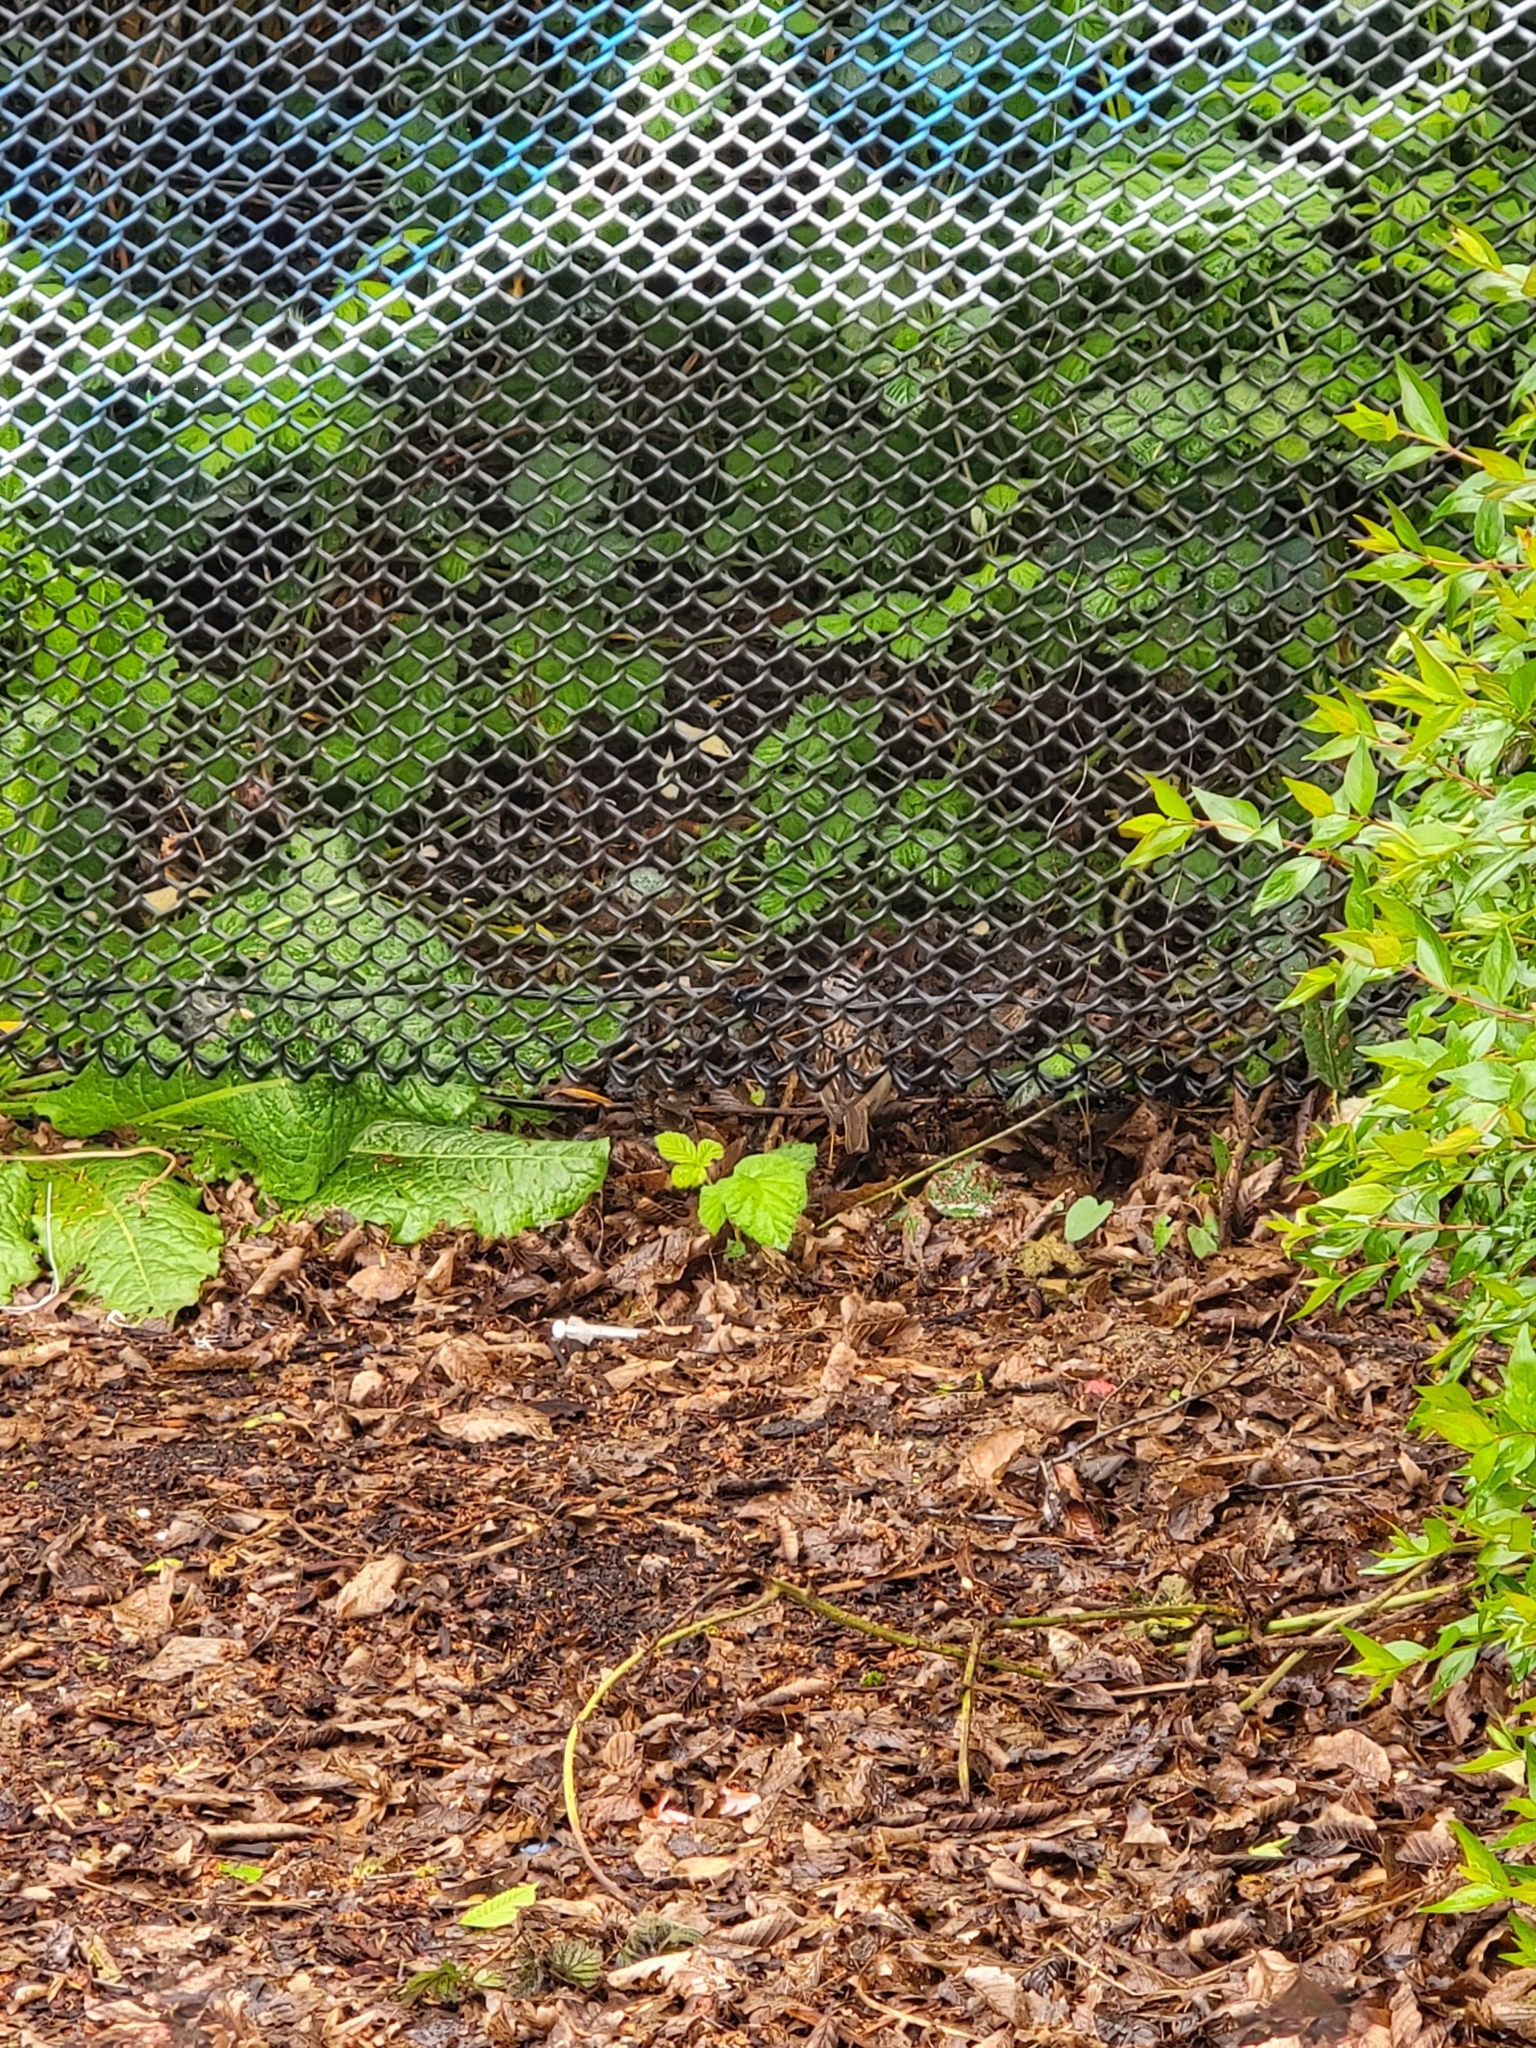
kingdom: Animalia
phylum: Chordata
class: Aves
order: Passeriformes
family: Passerellidae
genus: Zonotrichia
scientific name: Zonotrichia leucophrys
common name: White-crowned sparrow
